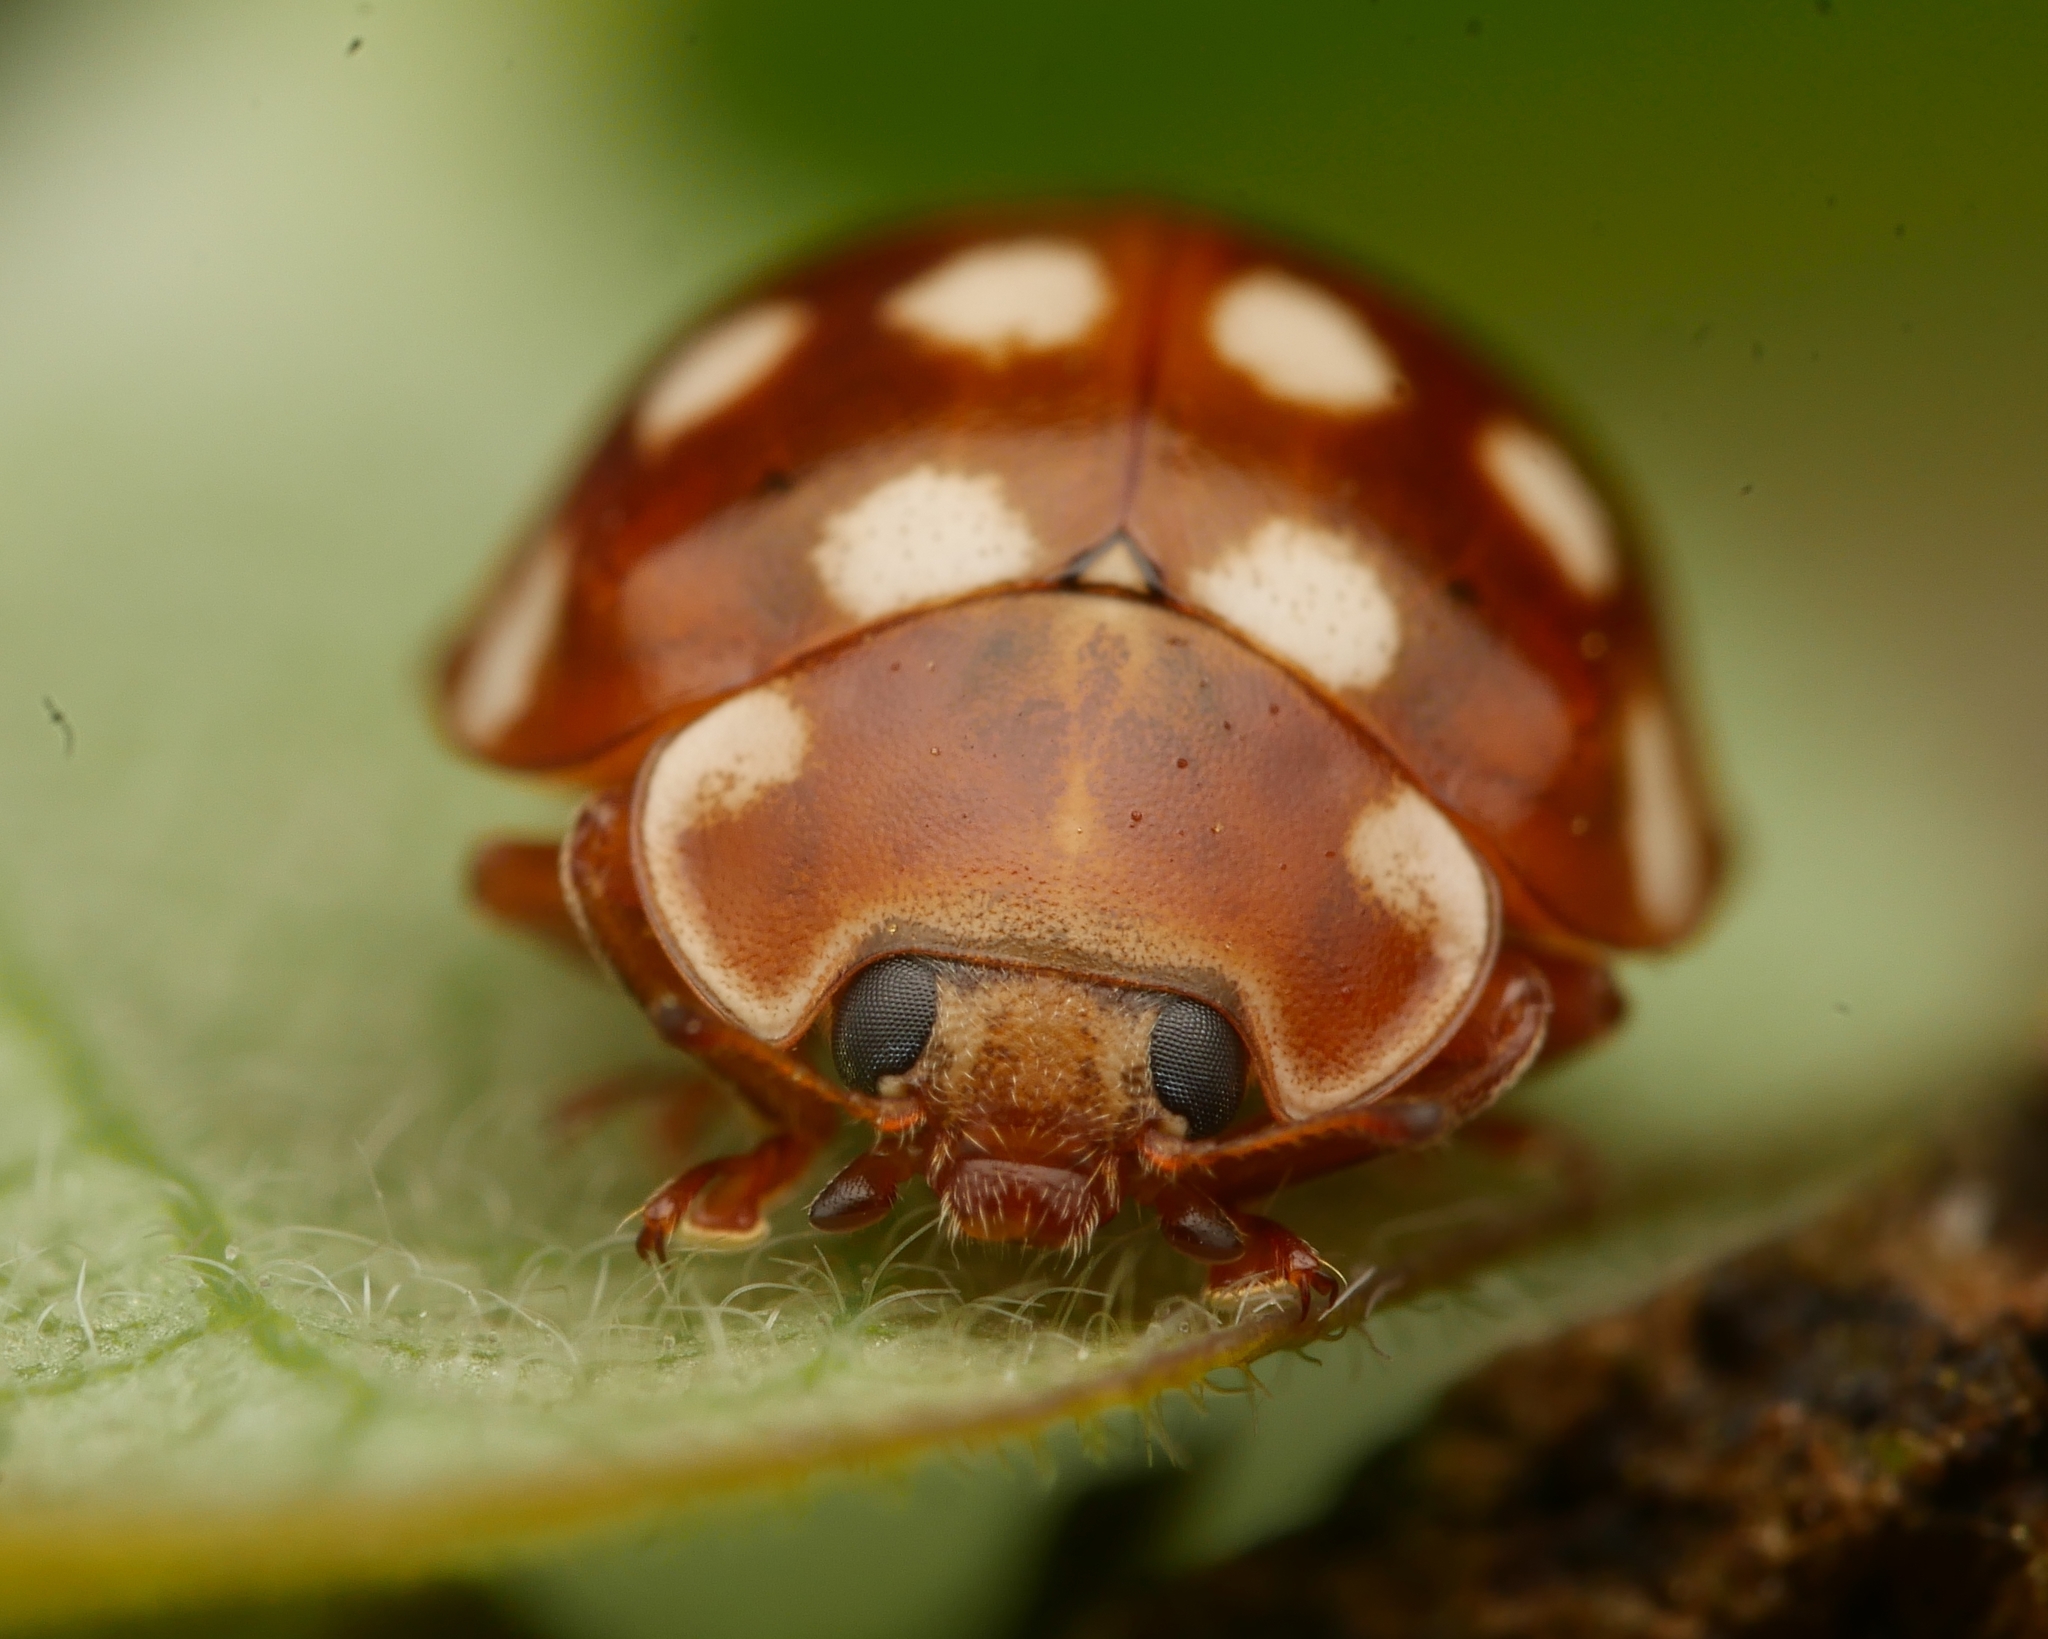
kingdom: Animalia
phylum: Arthropoda
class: Insecta
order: Coleoptera
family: Coccinellidae
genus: Calvia
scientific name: Calvia quatuordecimguttata
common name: Cream-spot ladybird
